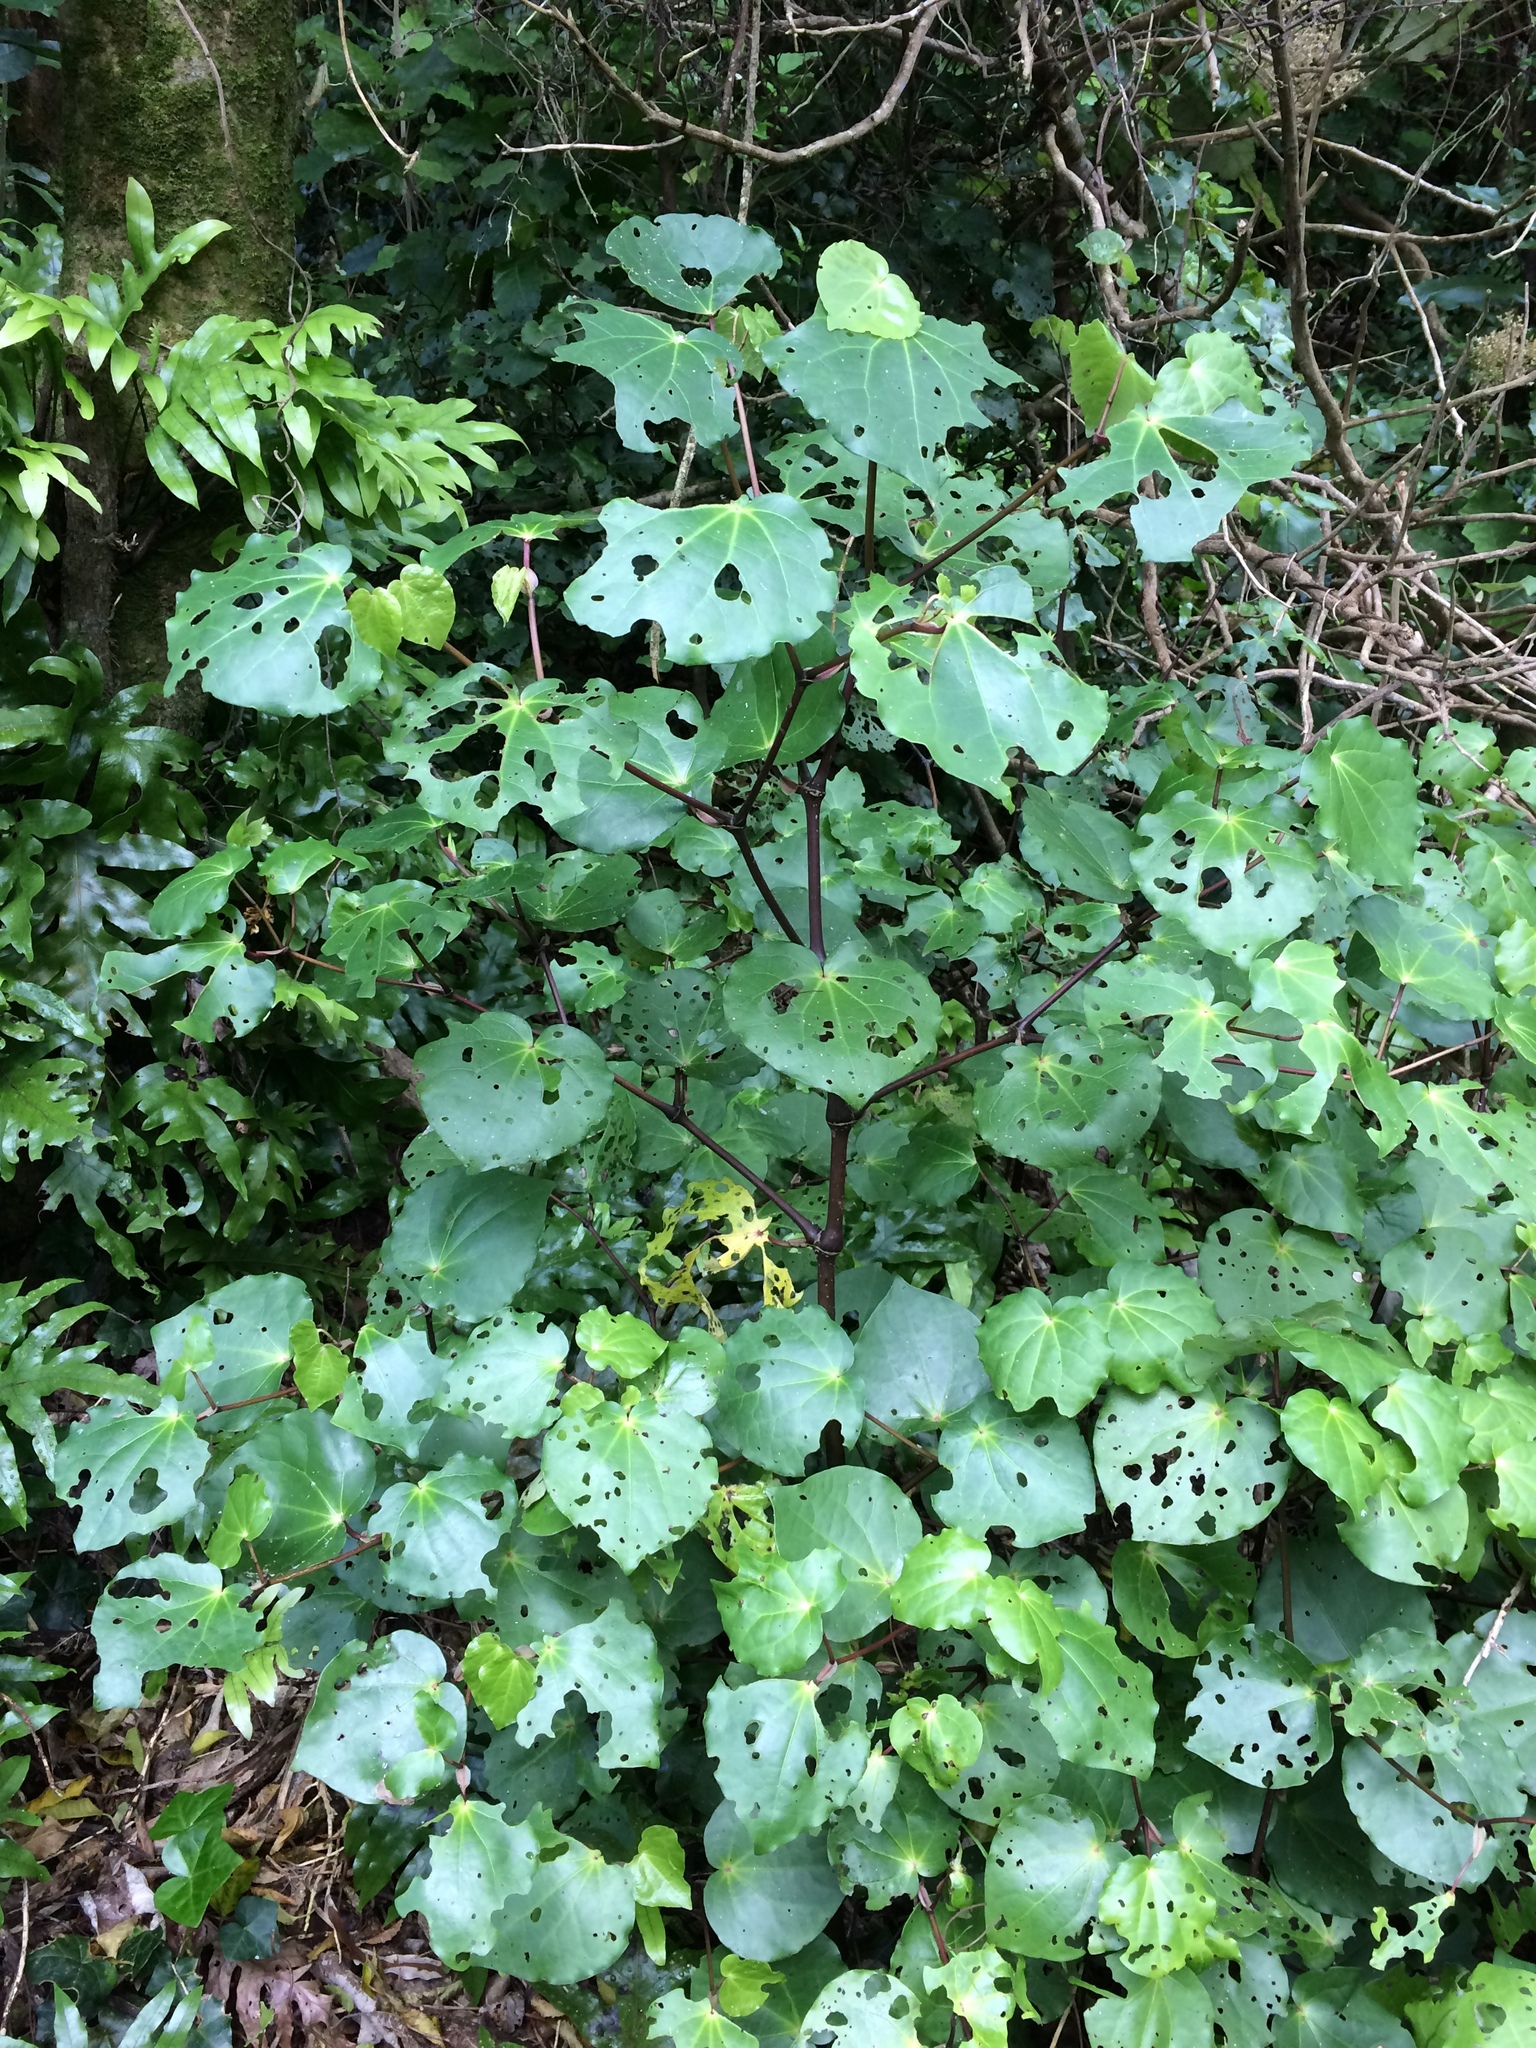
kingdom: Plantae
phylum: Tracheophyta
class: Magnoliopsida
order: Piperales
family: Piperaceae
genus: Macropiper
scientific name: Macropiper excelsum
